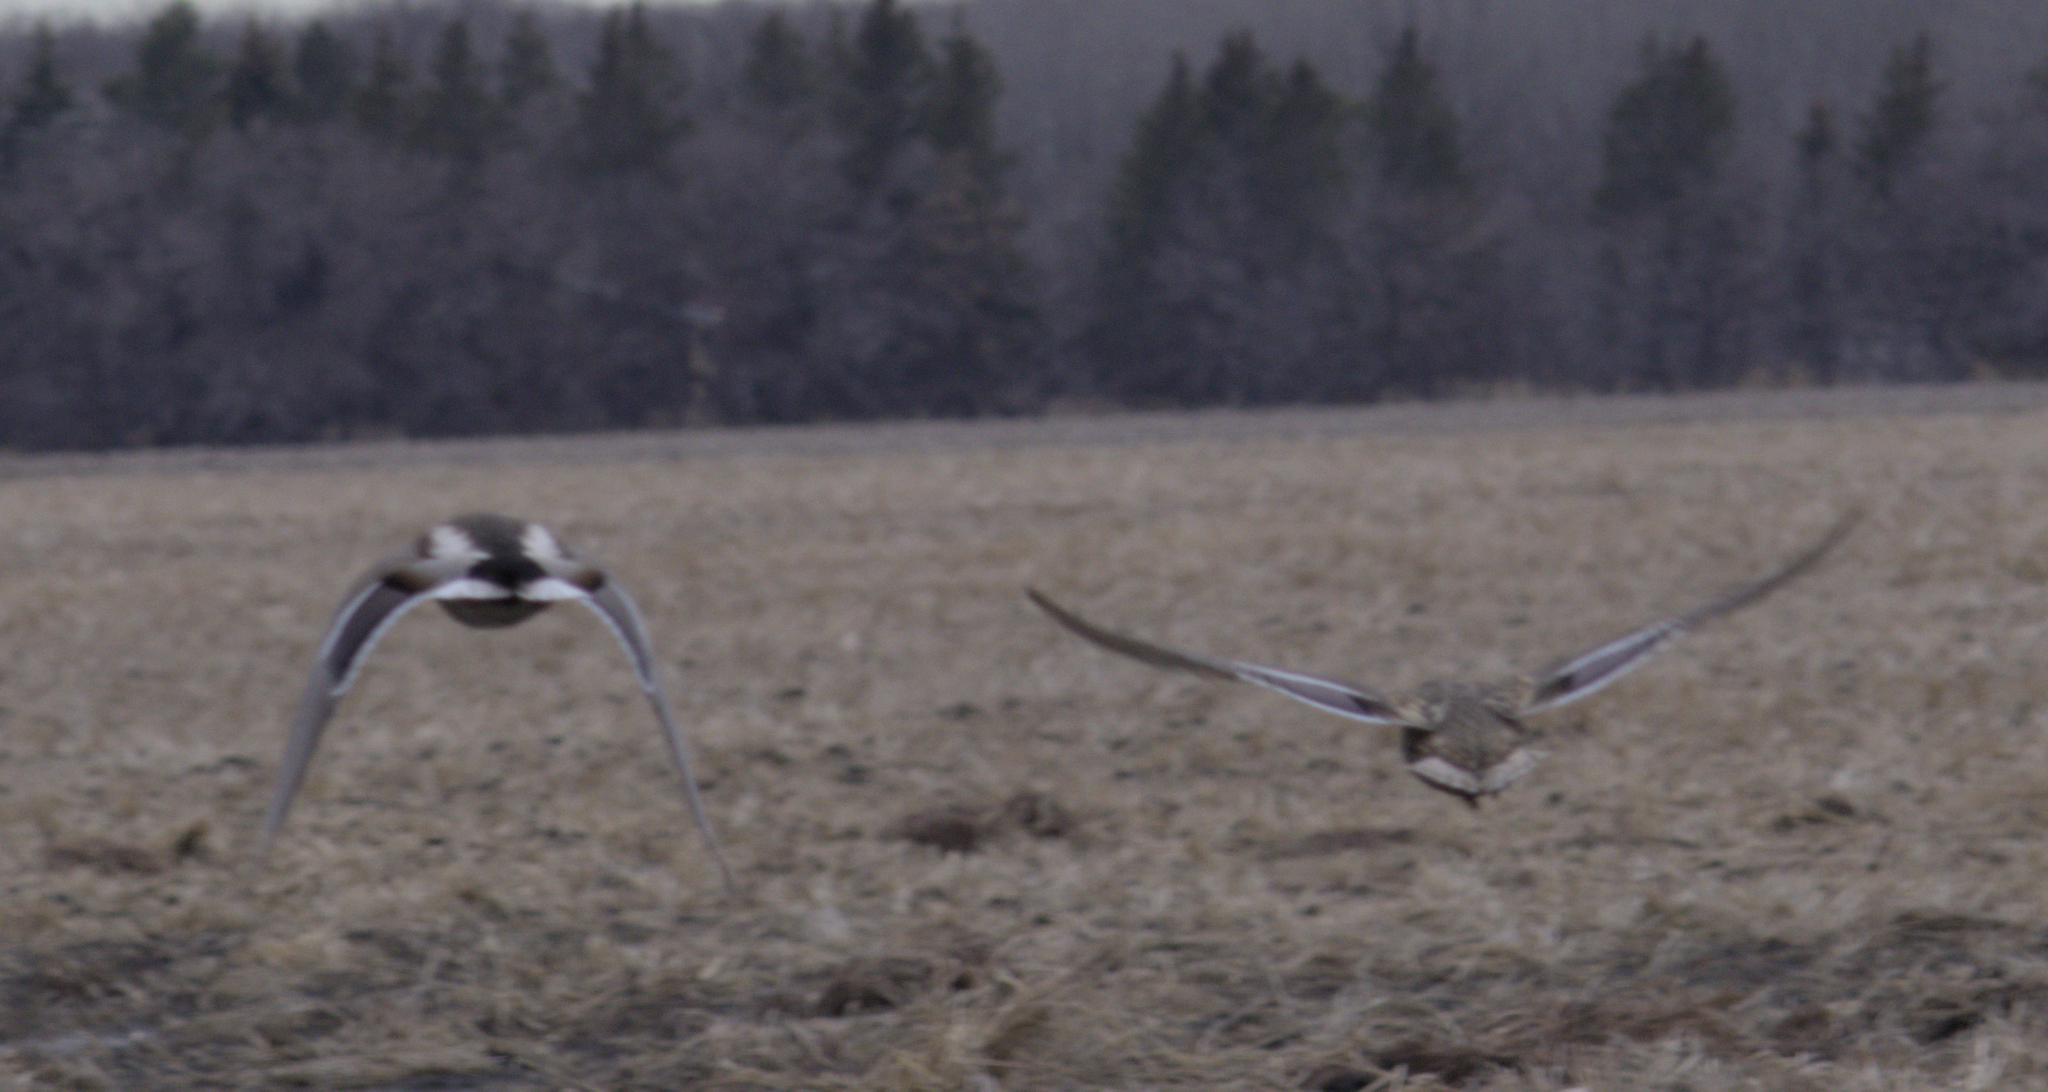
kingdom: Animalia
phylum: Chordata
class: Aves
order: Anseriformes
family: Anatidae
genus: Anas
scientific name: Anas platyrhynchos
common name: Mallard
